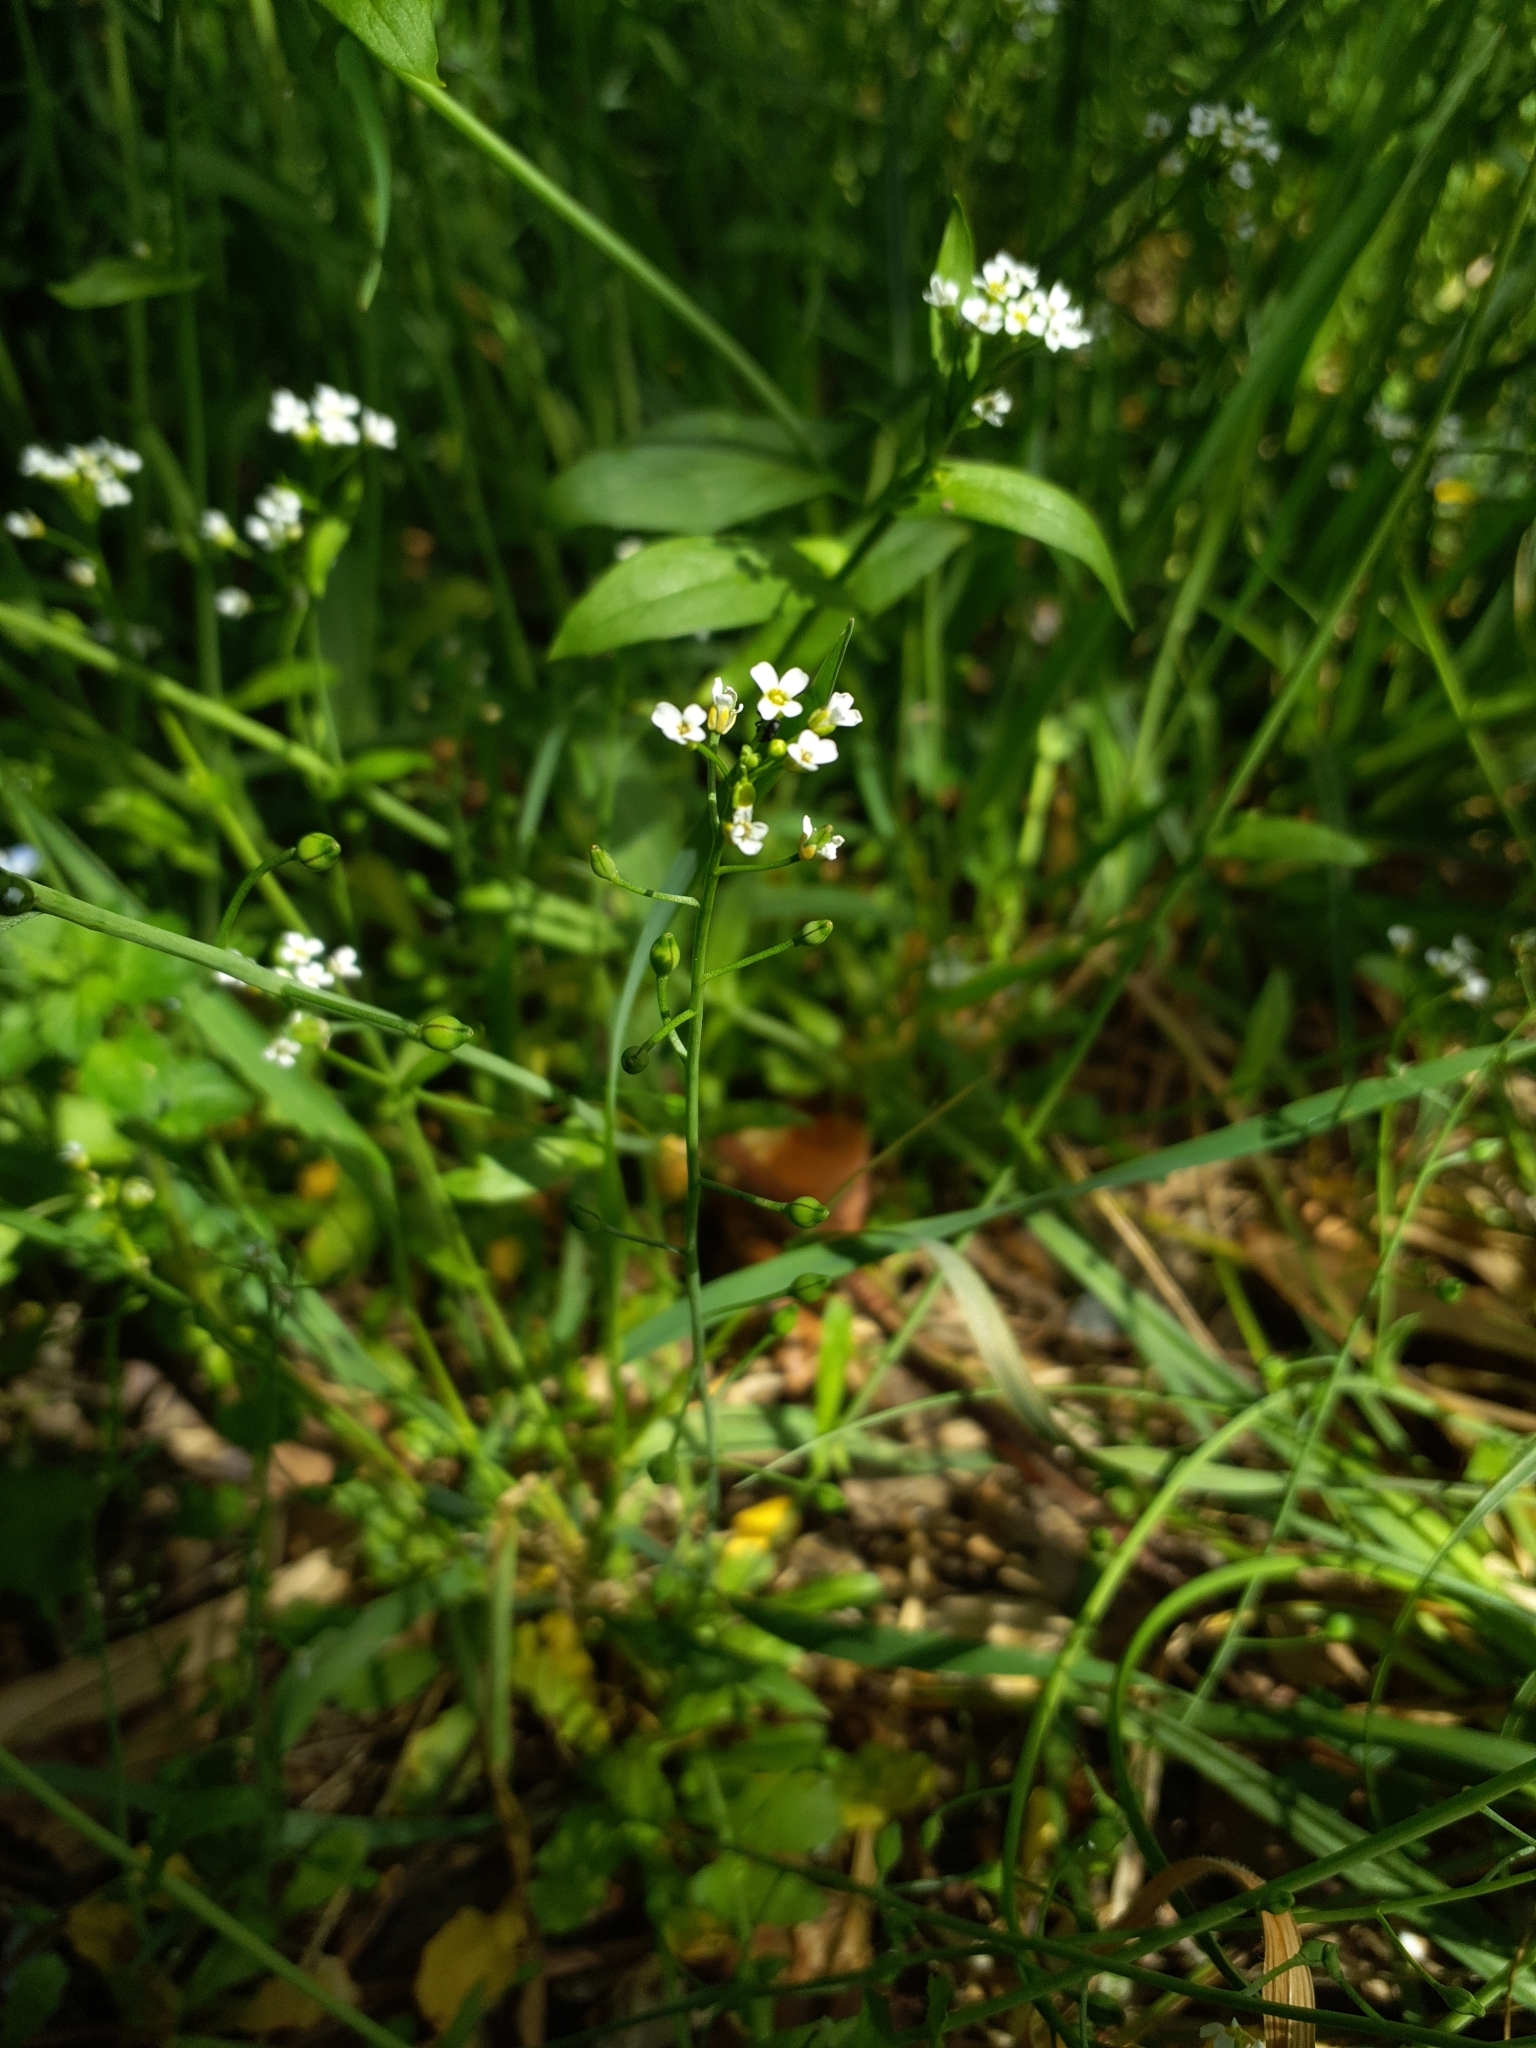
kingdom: Plantae
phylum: Tracheophyta
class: Magnoliopsida
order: Brassicales
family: Brassicaceae
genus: Calepina
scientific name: Calepina irregularis
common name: White ballmustard
